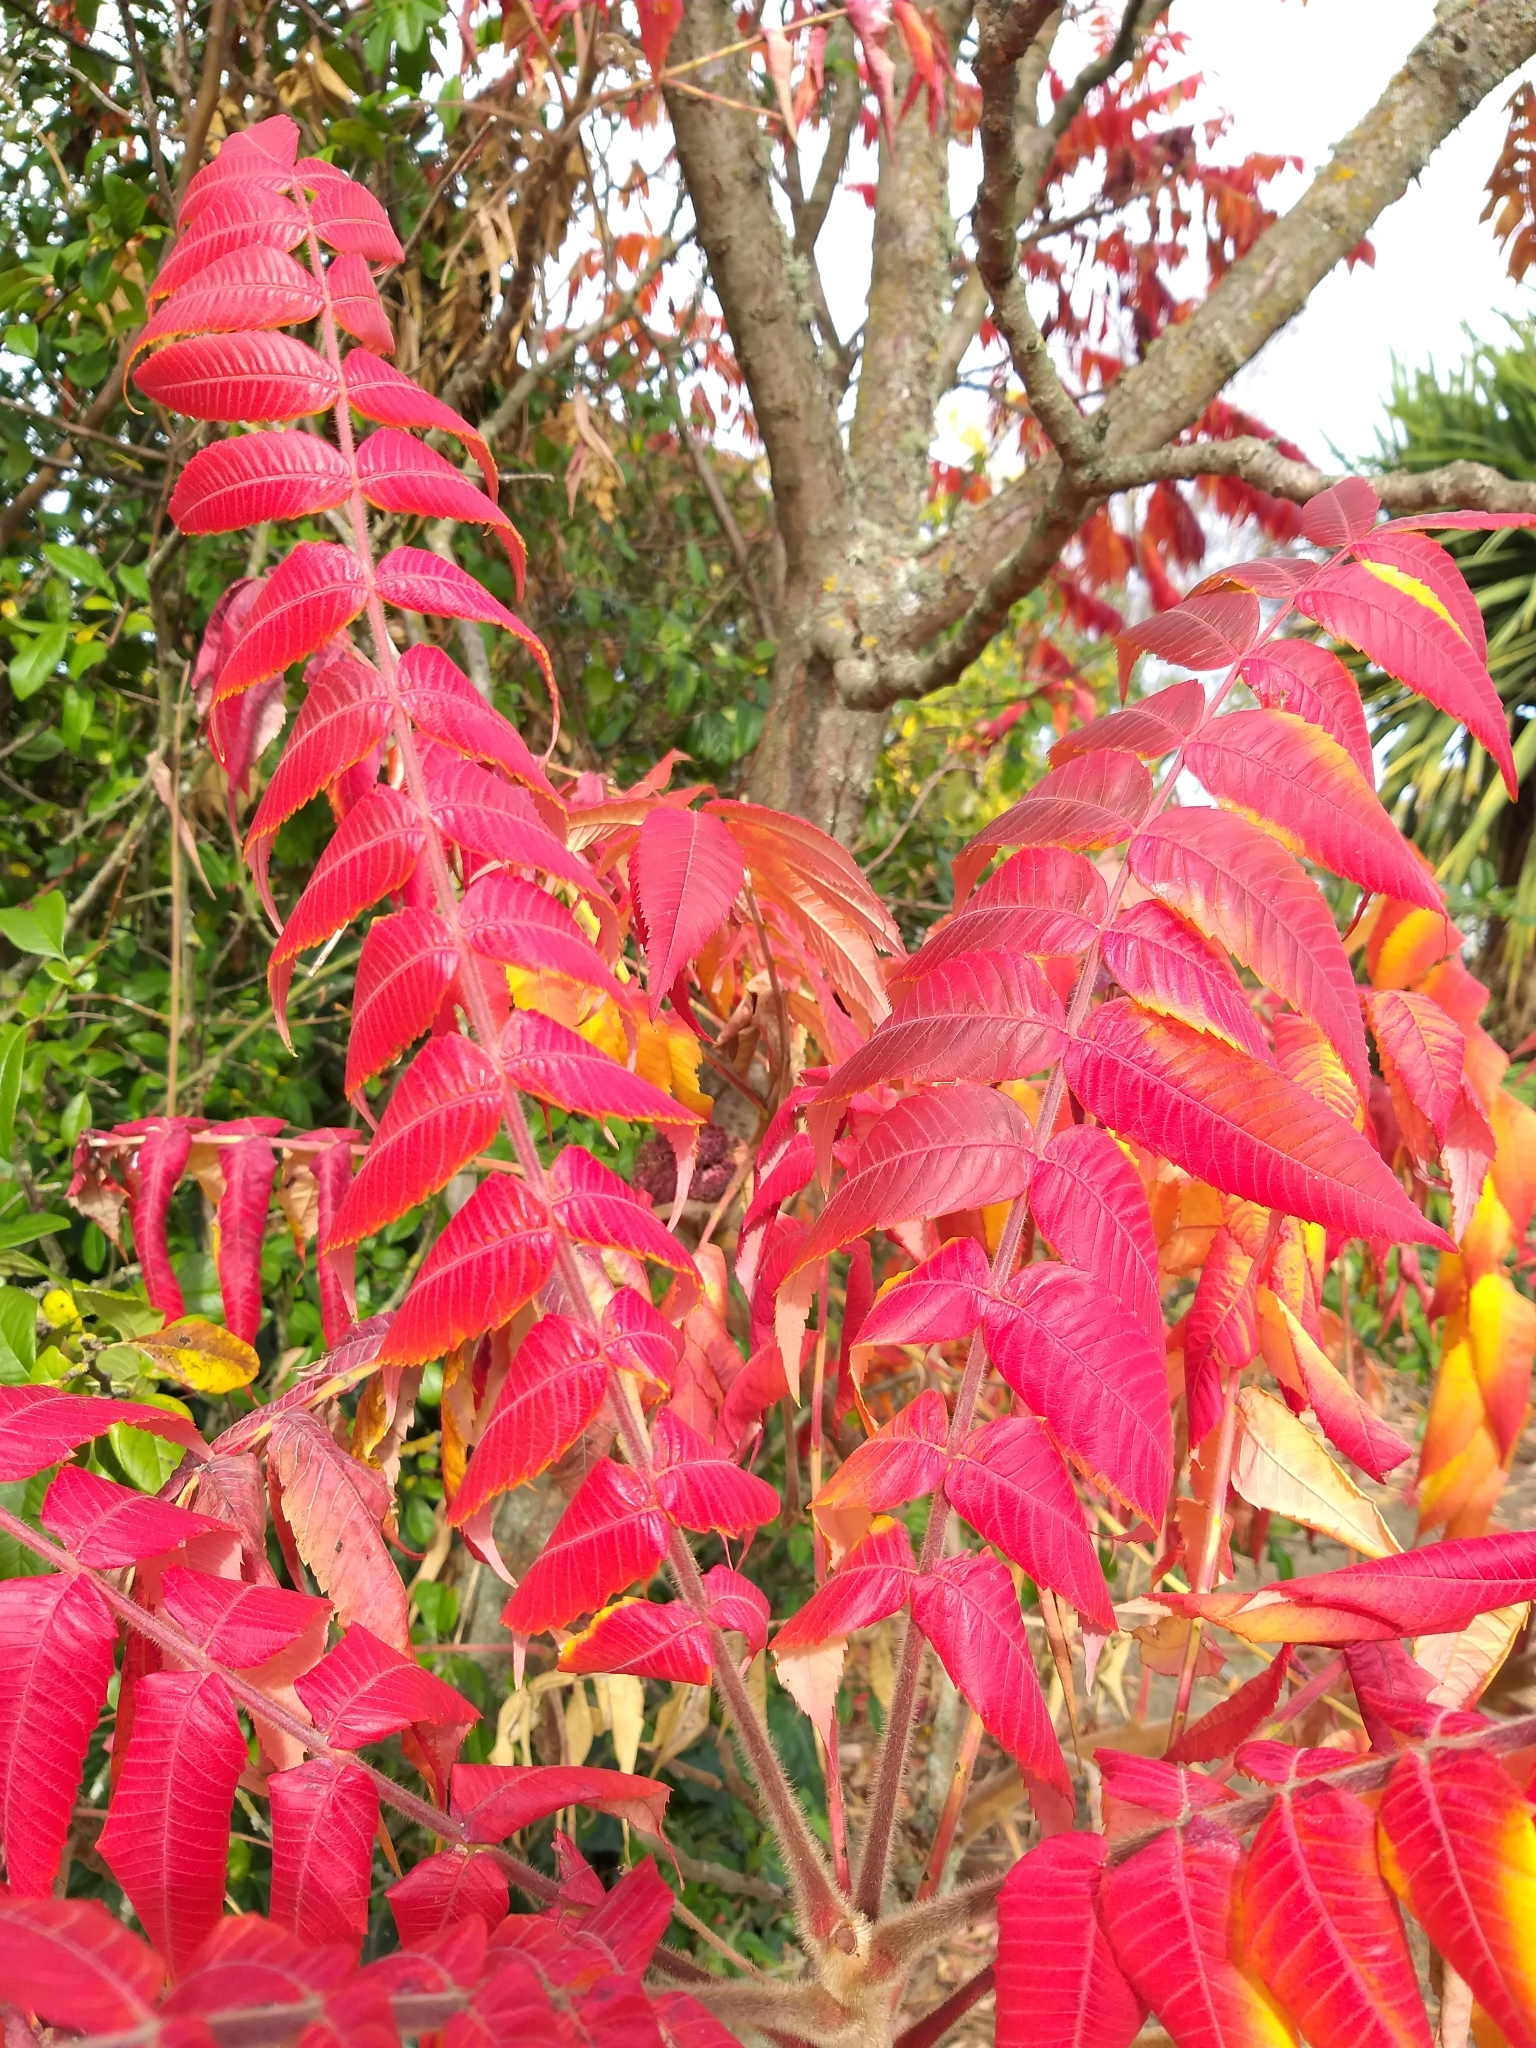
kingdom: Plantae
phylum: Tracheophyta
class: Magnoliopsida
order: Sapindales
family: Anacardiaceae
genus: Rhus
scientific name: Rhus typhina
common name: Staghorn sumac
